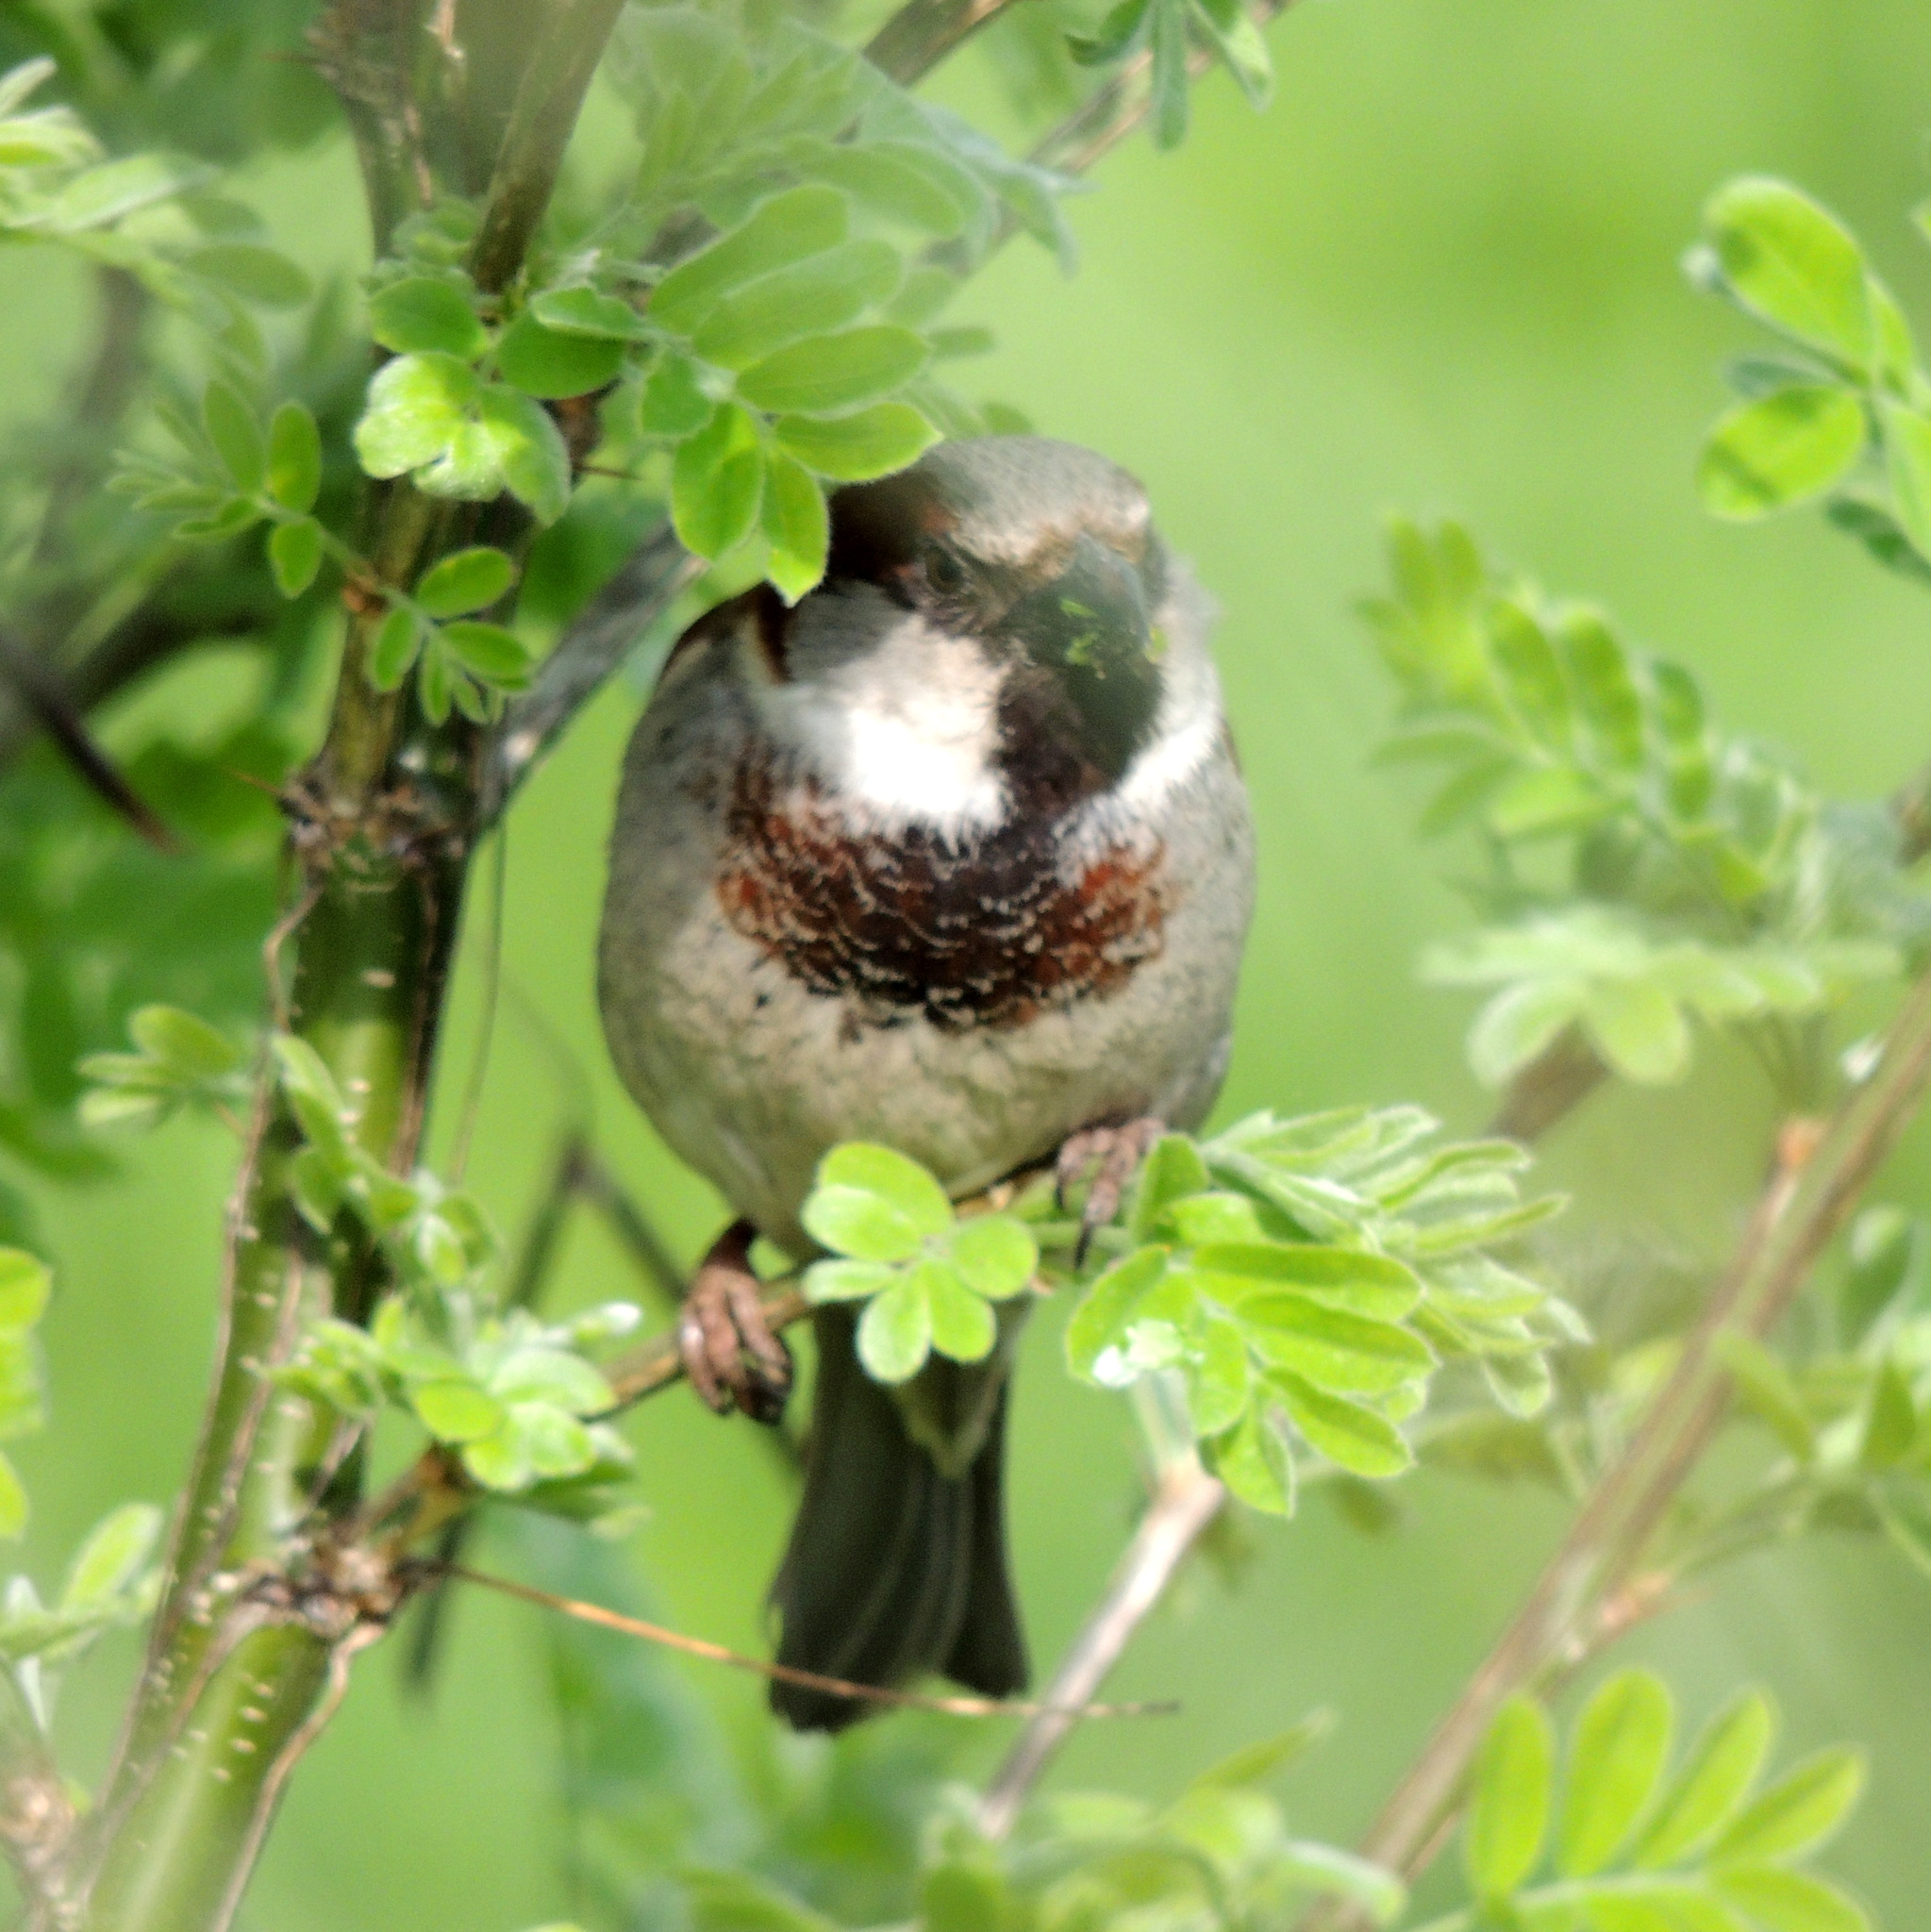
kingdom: Animalia
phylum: Chordata
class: Aves
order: Passeriformes
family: Passeridae
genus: Passer
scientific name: Passer domesticus
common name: House sparrow
